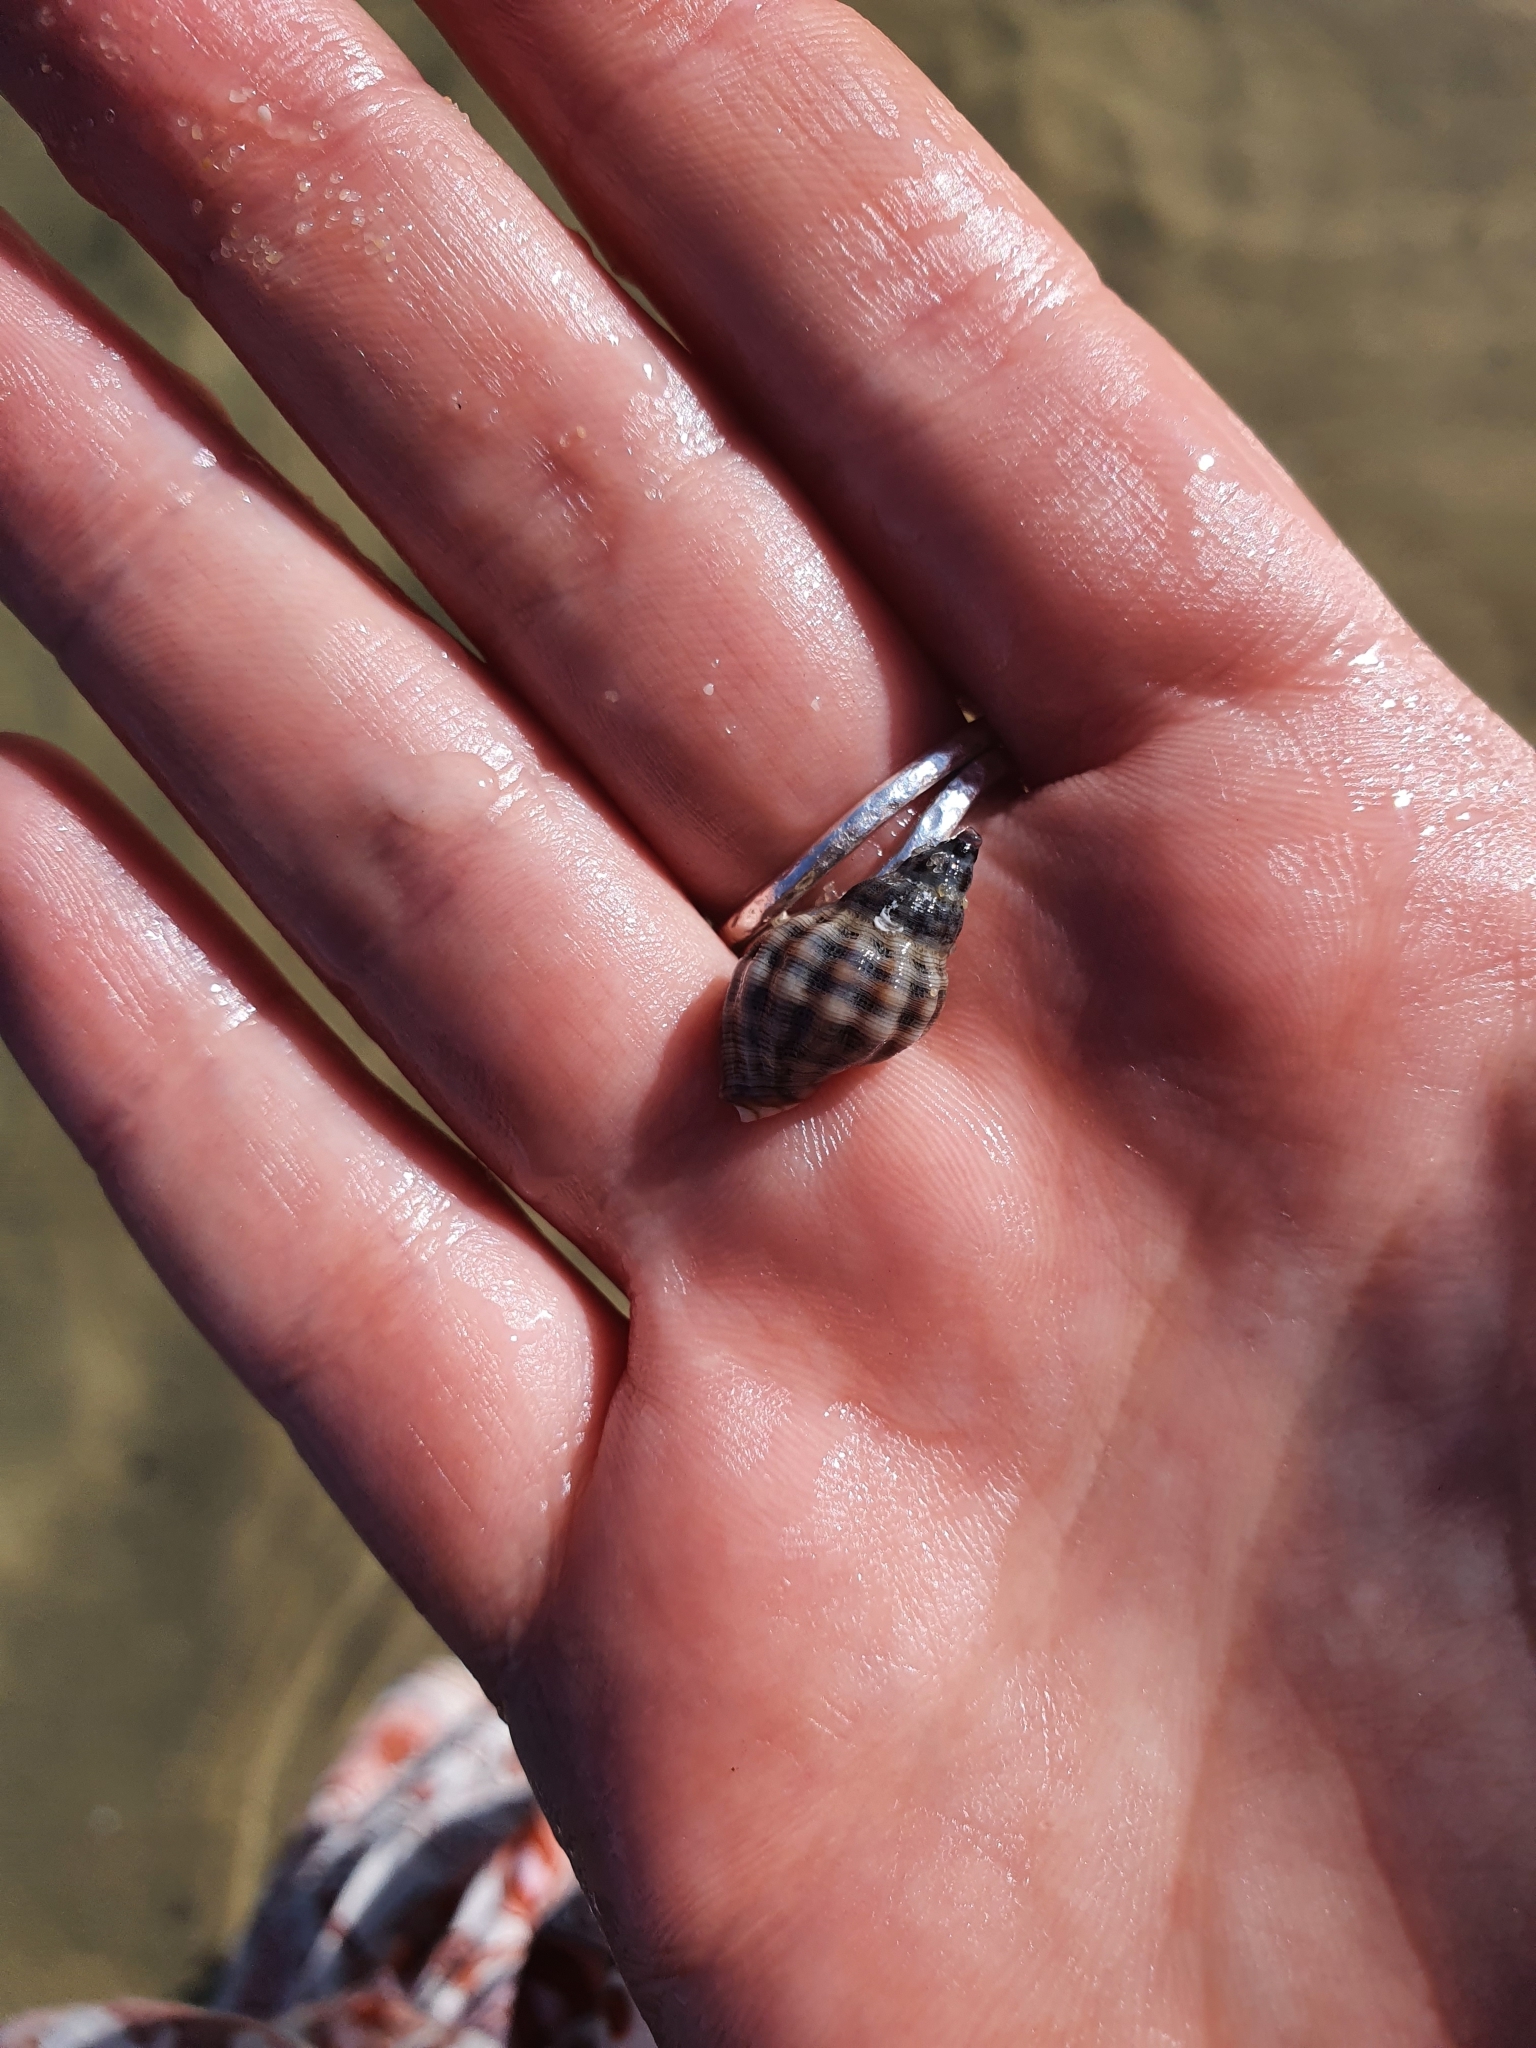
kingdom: Animalia
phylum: Mollusca
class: Gastropoda
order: Neogastropoda
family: Muricidae
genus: Agnewia
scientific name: Agnewia tritoniformis
